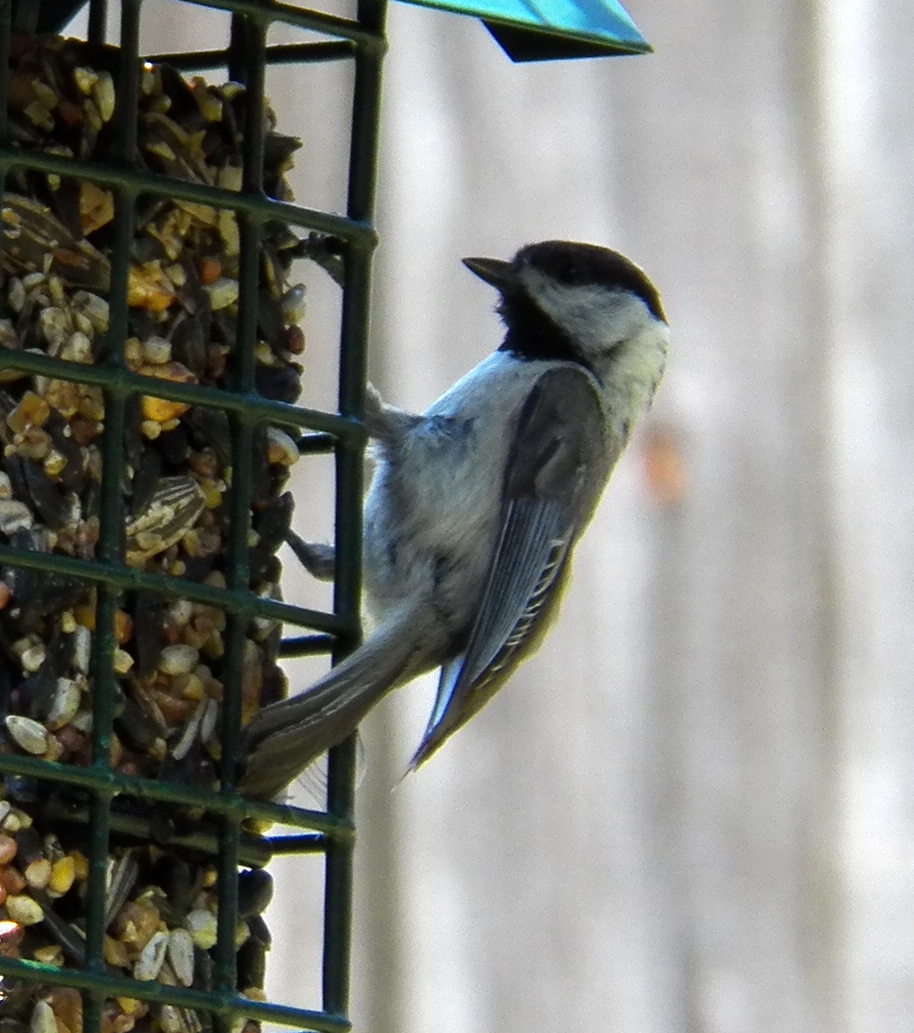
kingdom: Animalia
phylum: Chordata
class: Aves
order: Passeriformes
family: Paridae
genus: Poecile
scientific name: Poecile carolinensis
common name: Carolina chickadee
